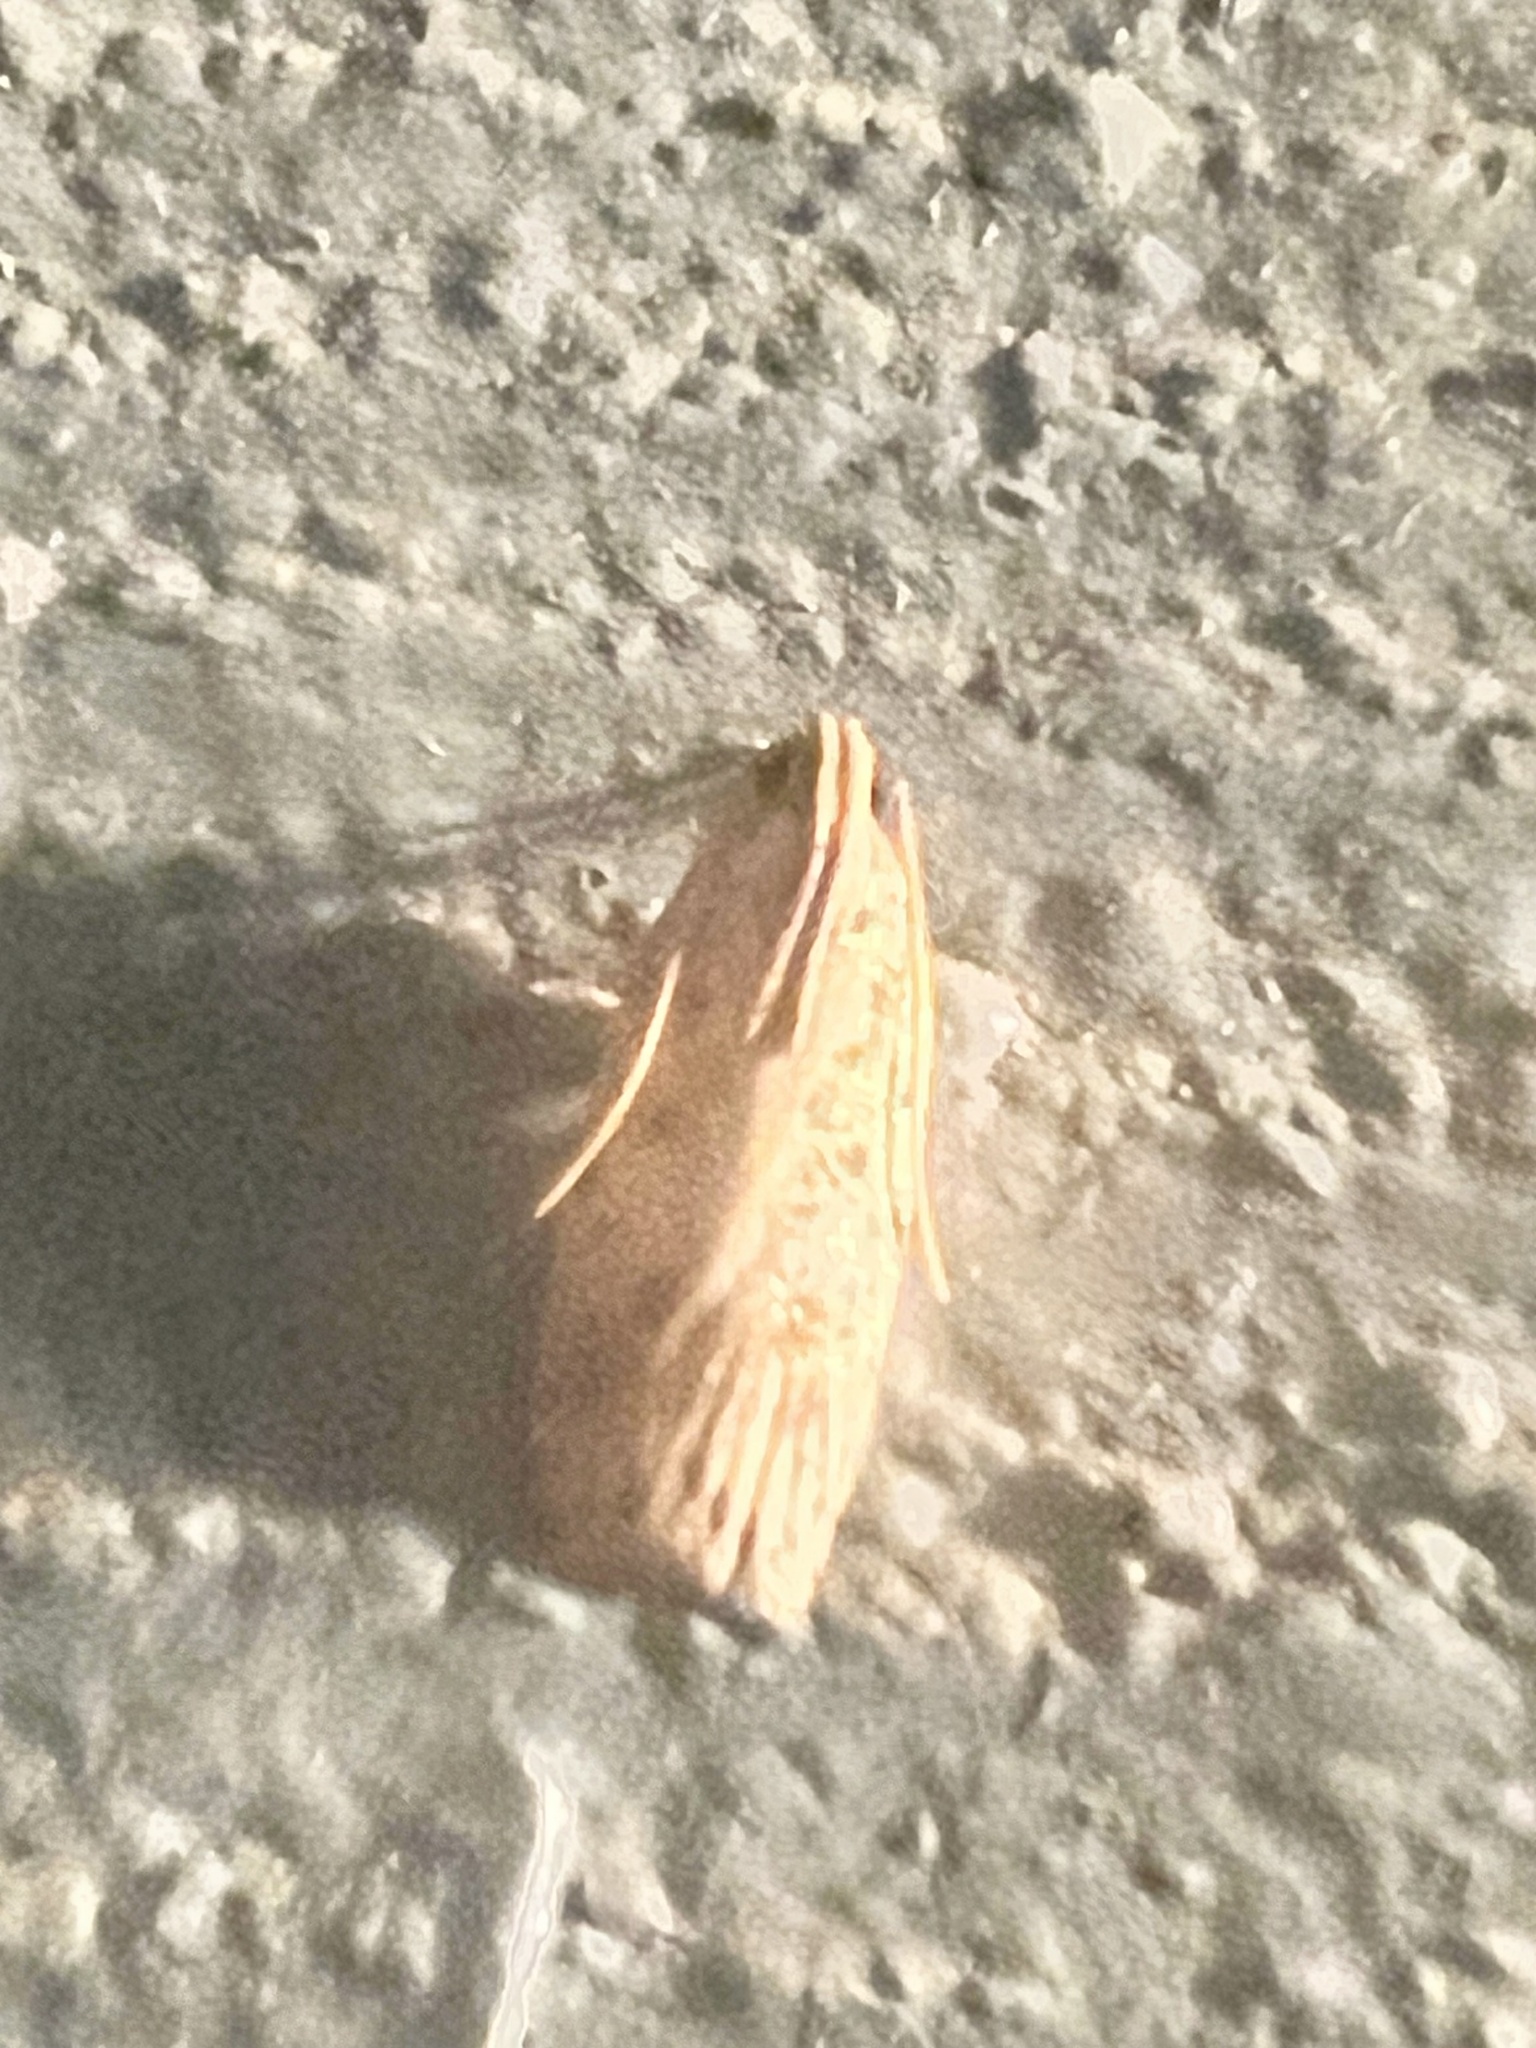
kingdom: Animalia
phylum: Arthropoda
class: Insecta
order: Lepidoptera
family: Autostichidae
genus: Stoeberhinus
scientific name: Stoeberhinus testaceus
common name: Moth
